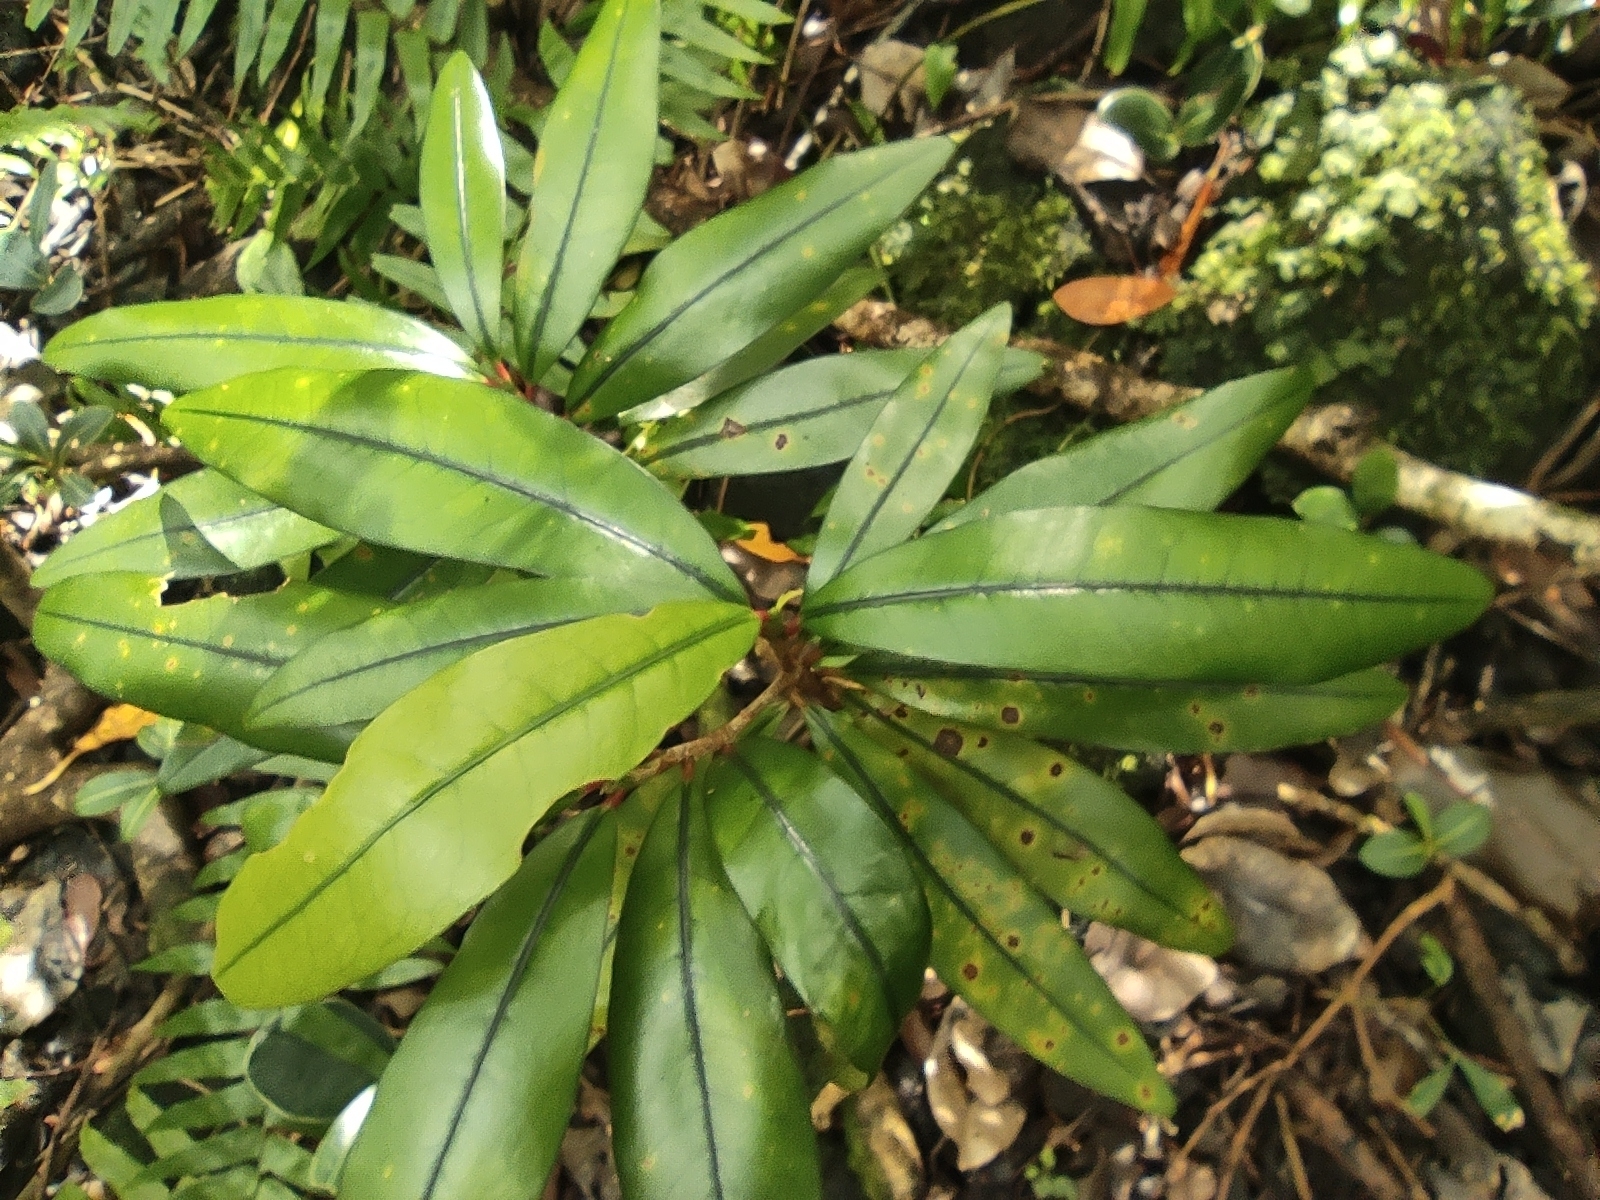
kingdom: Plantae
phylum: Tracheophyta
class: Magnoliopsida
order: Malpighiales
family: Erythroxylaceae
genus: Erythroxylum
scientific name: Erythroxylum laurifolium
